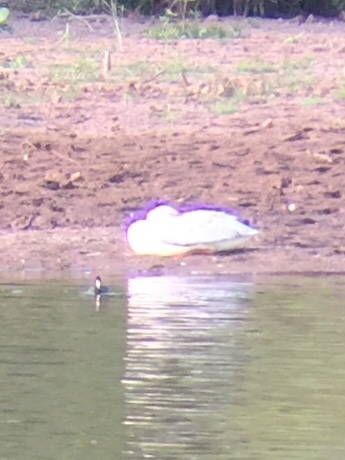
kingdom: Animalia
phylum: Chordata
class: Aves
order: Anseriformes
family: Anatidae
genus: Anas
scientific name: Anas platyrhynchos
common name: Mallard
